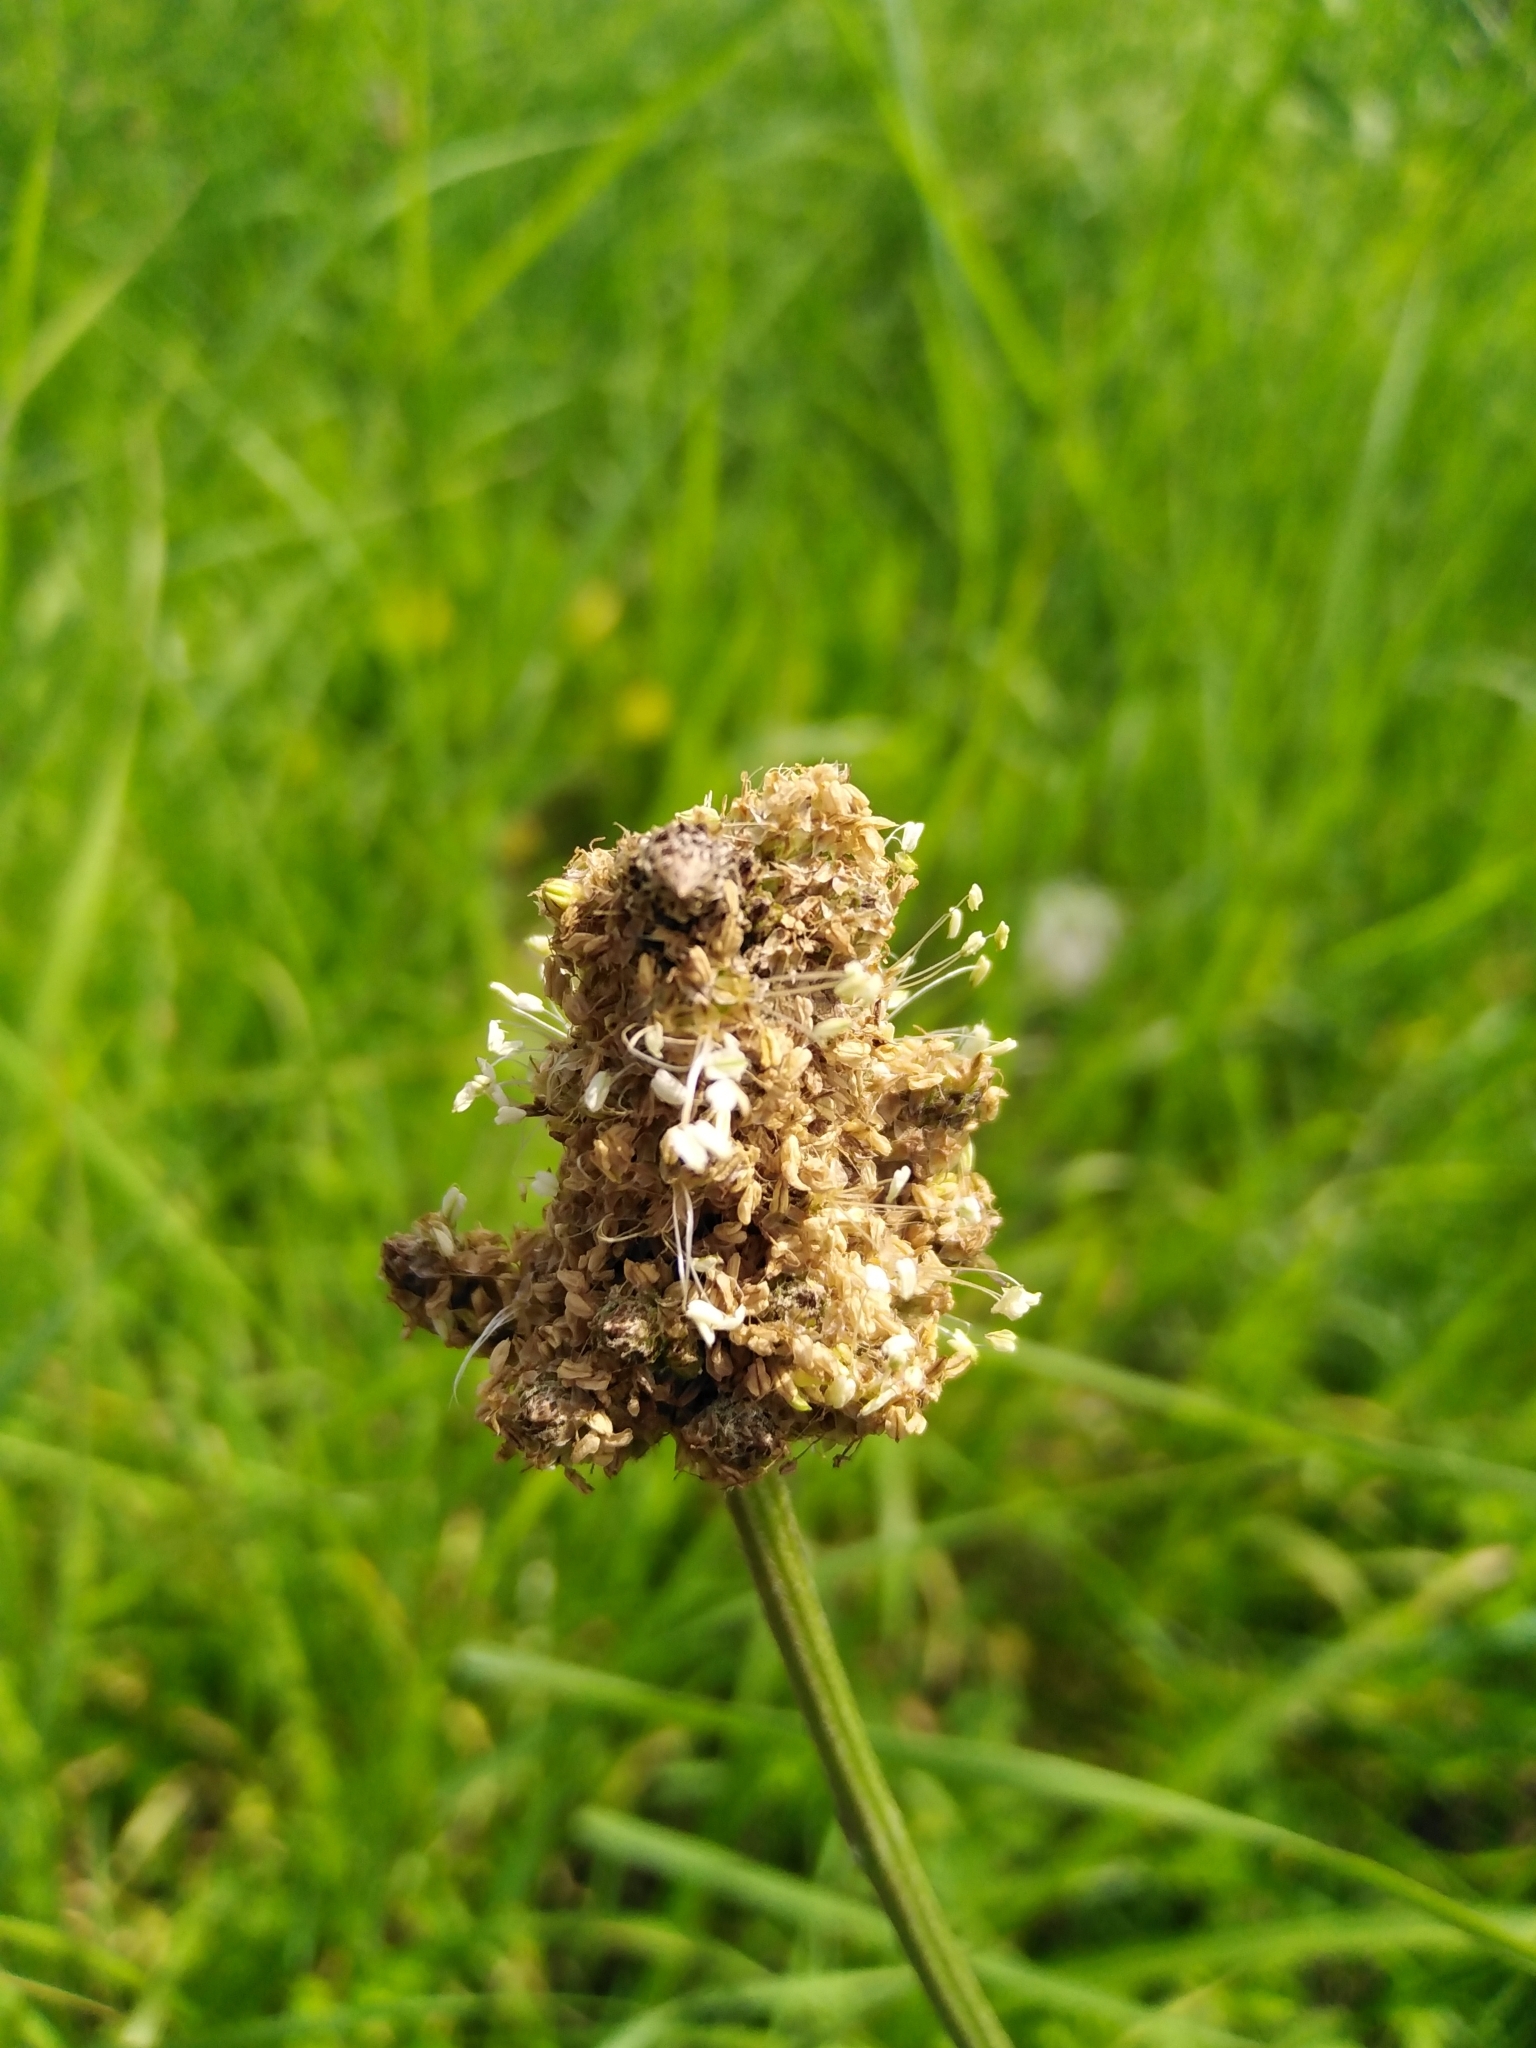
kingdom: Plantae
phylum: Tracheophyta
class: Magnoliopsida
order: Lamiales
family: Plantaginaceae
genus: Plantago
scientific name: Plantago lanceolata
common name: Ribwort plantain
